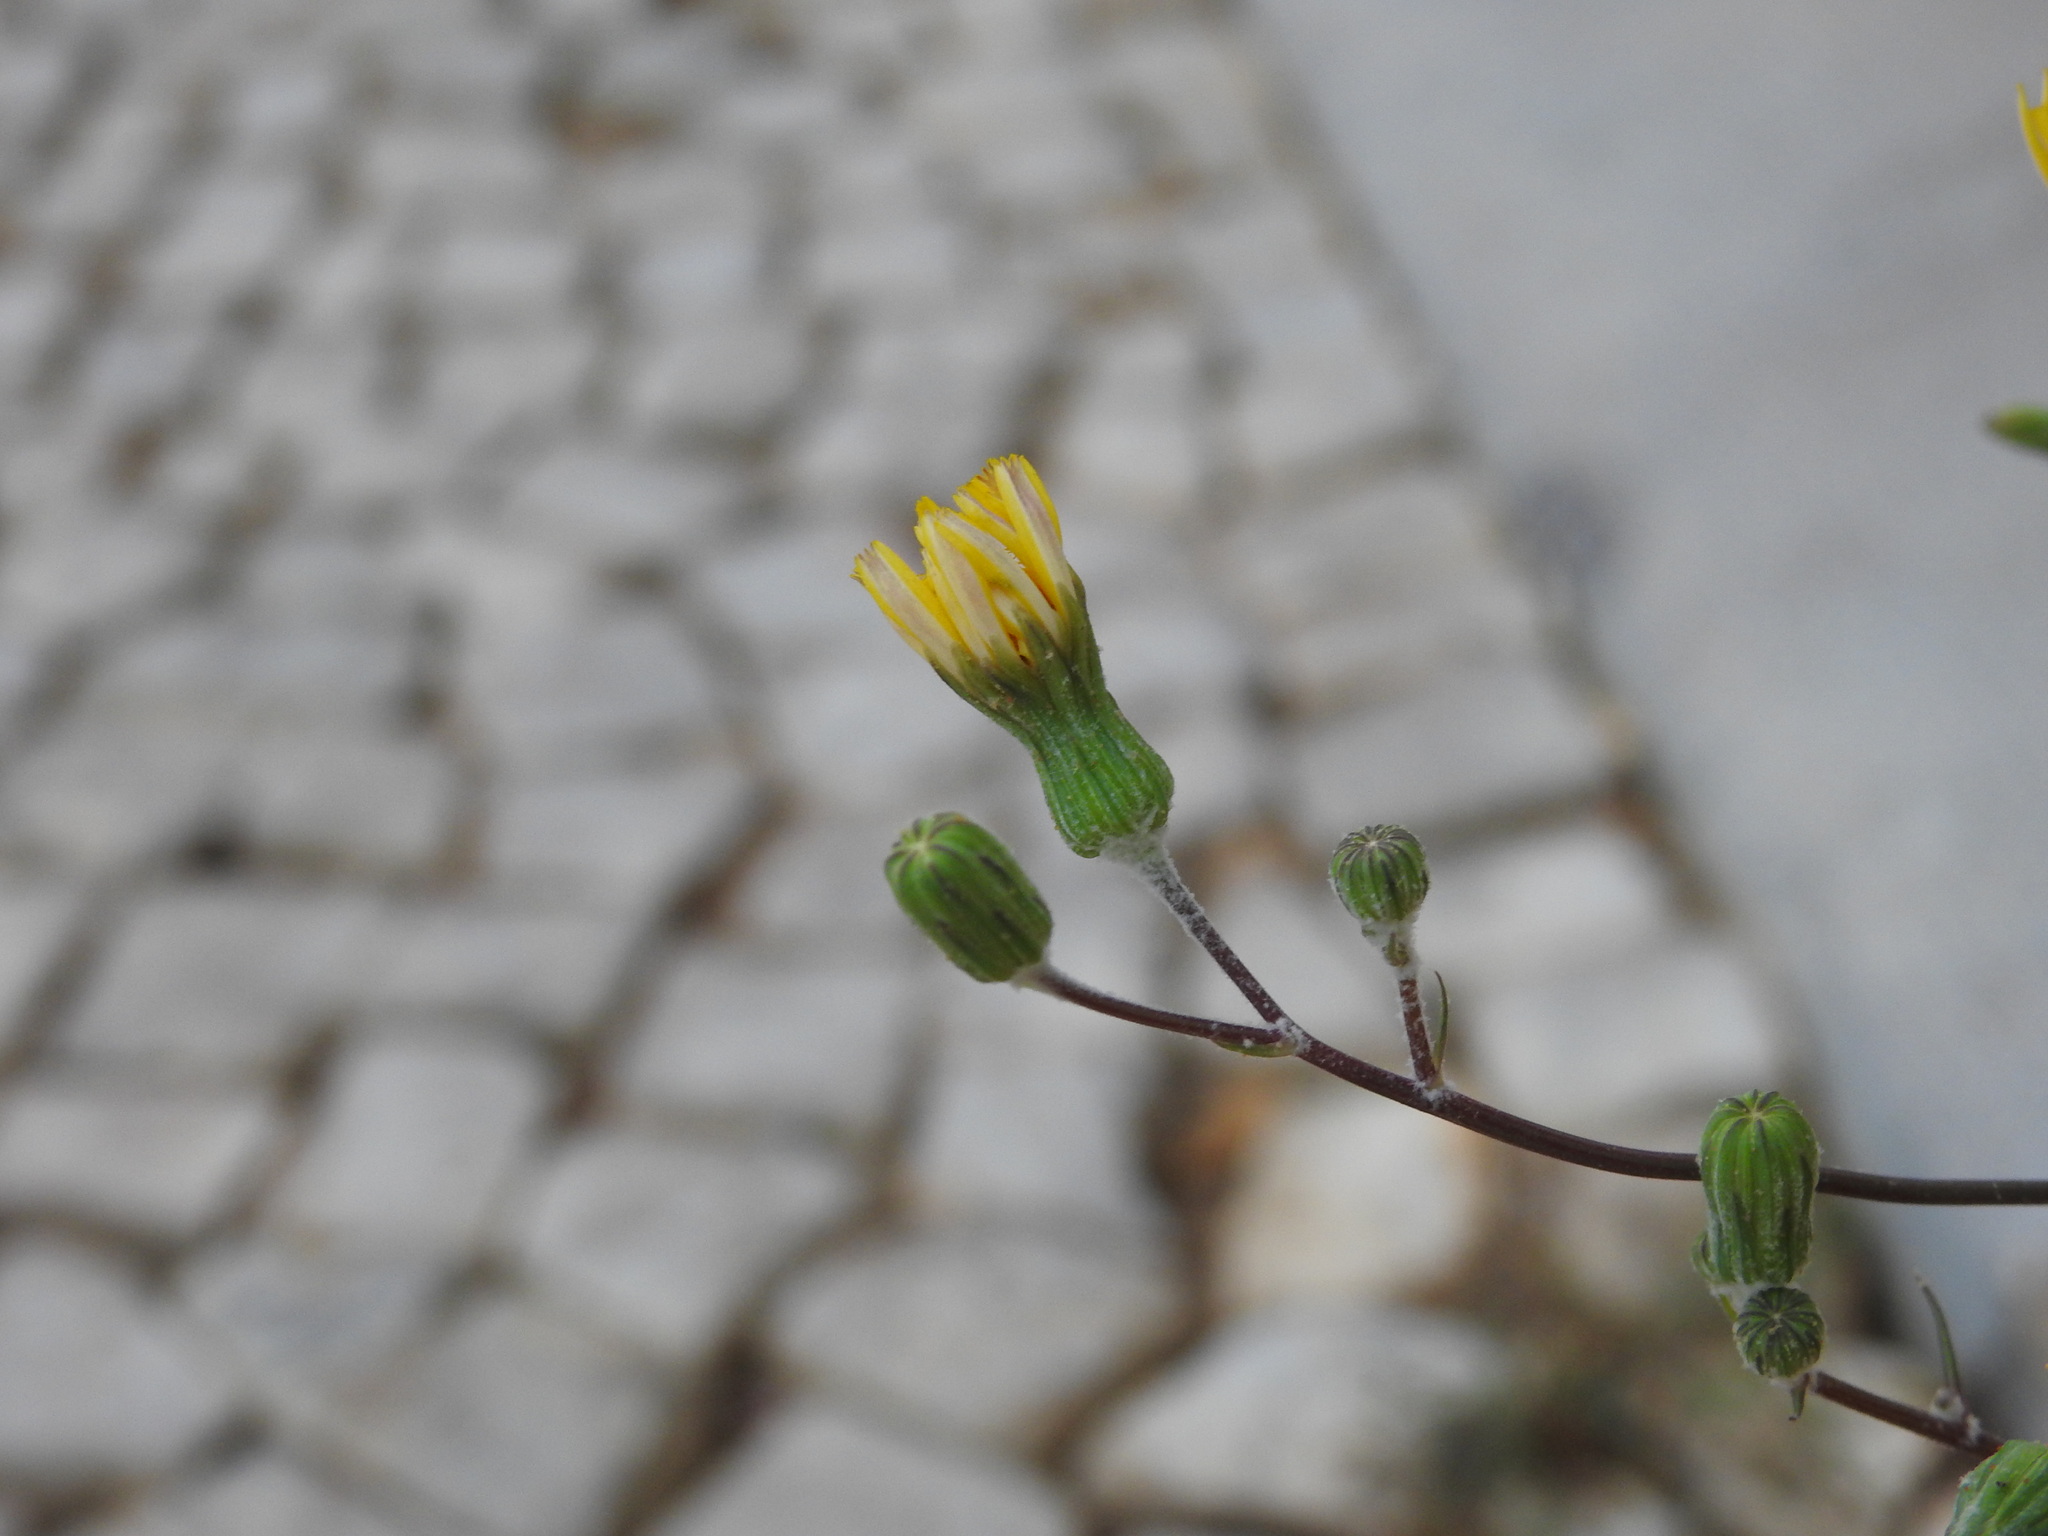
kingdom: Plantae
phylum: Tracheophyta
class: Magnoliopsida
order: Asterales
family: Asteraceae
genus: Sonchus
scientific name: Sonchus tenerrimus
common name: Clammy sowthistle
